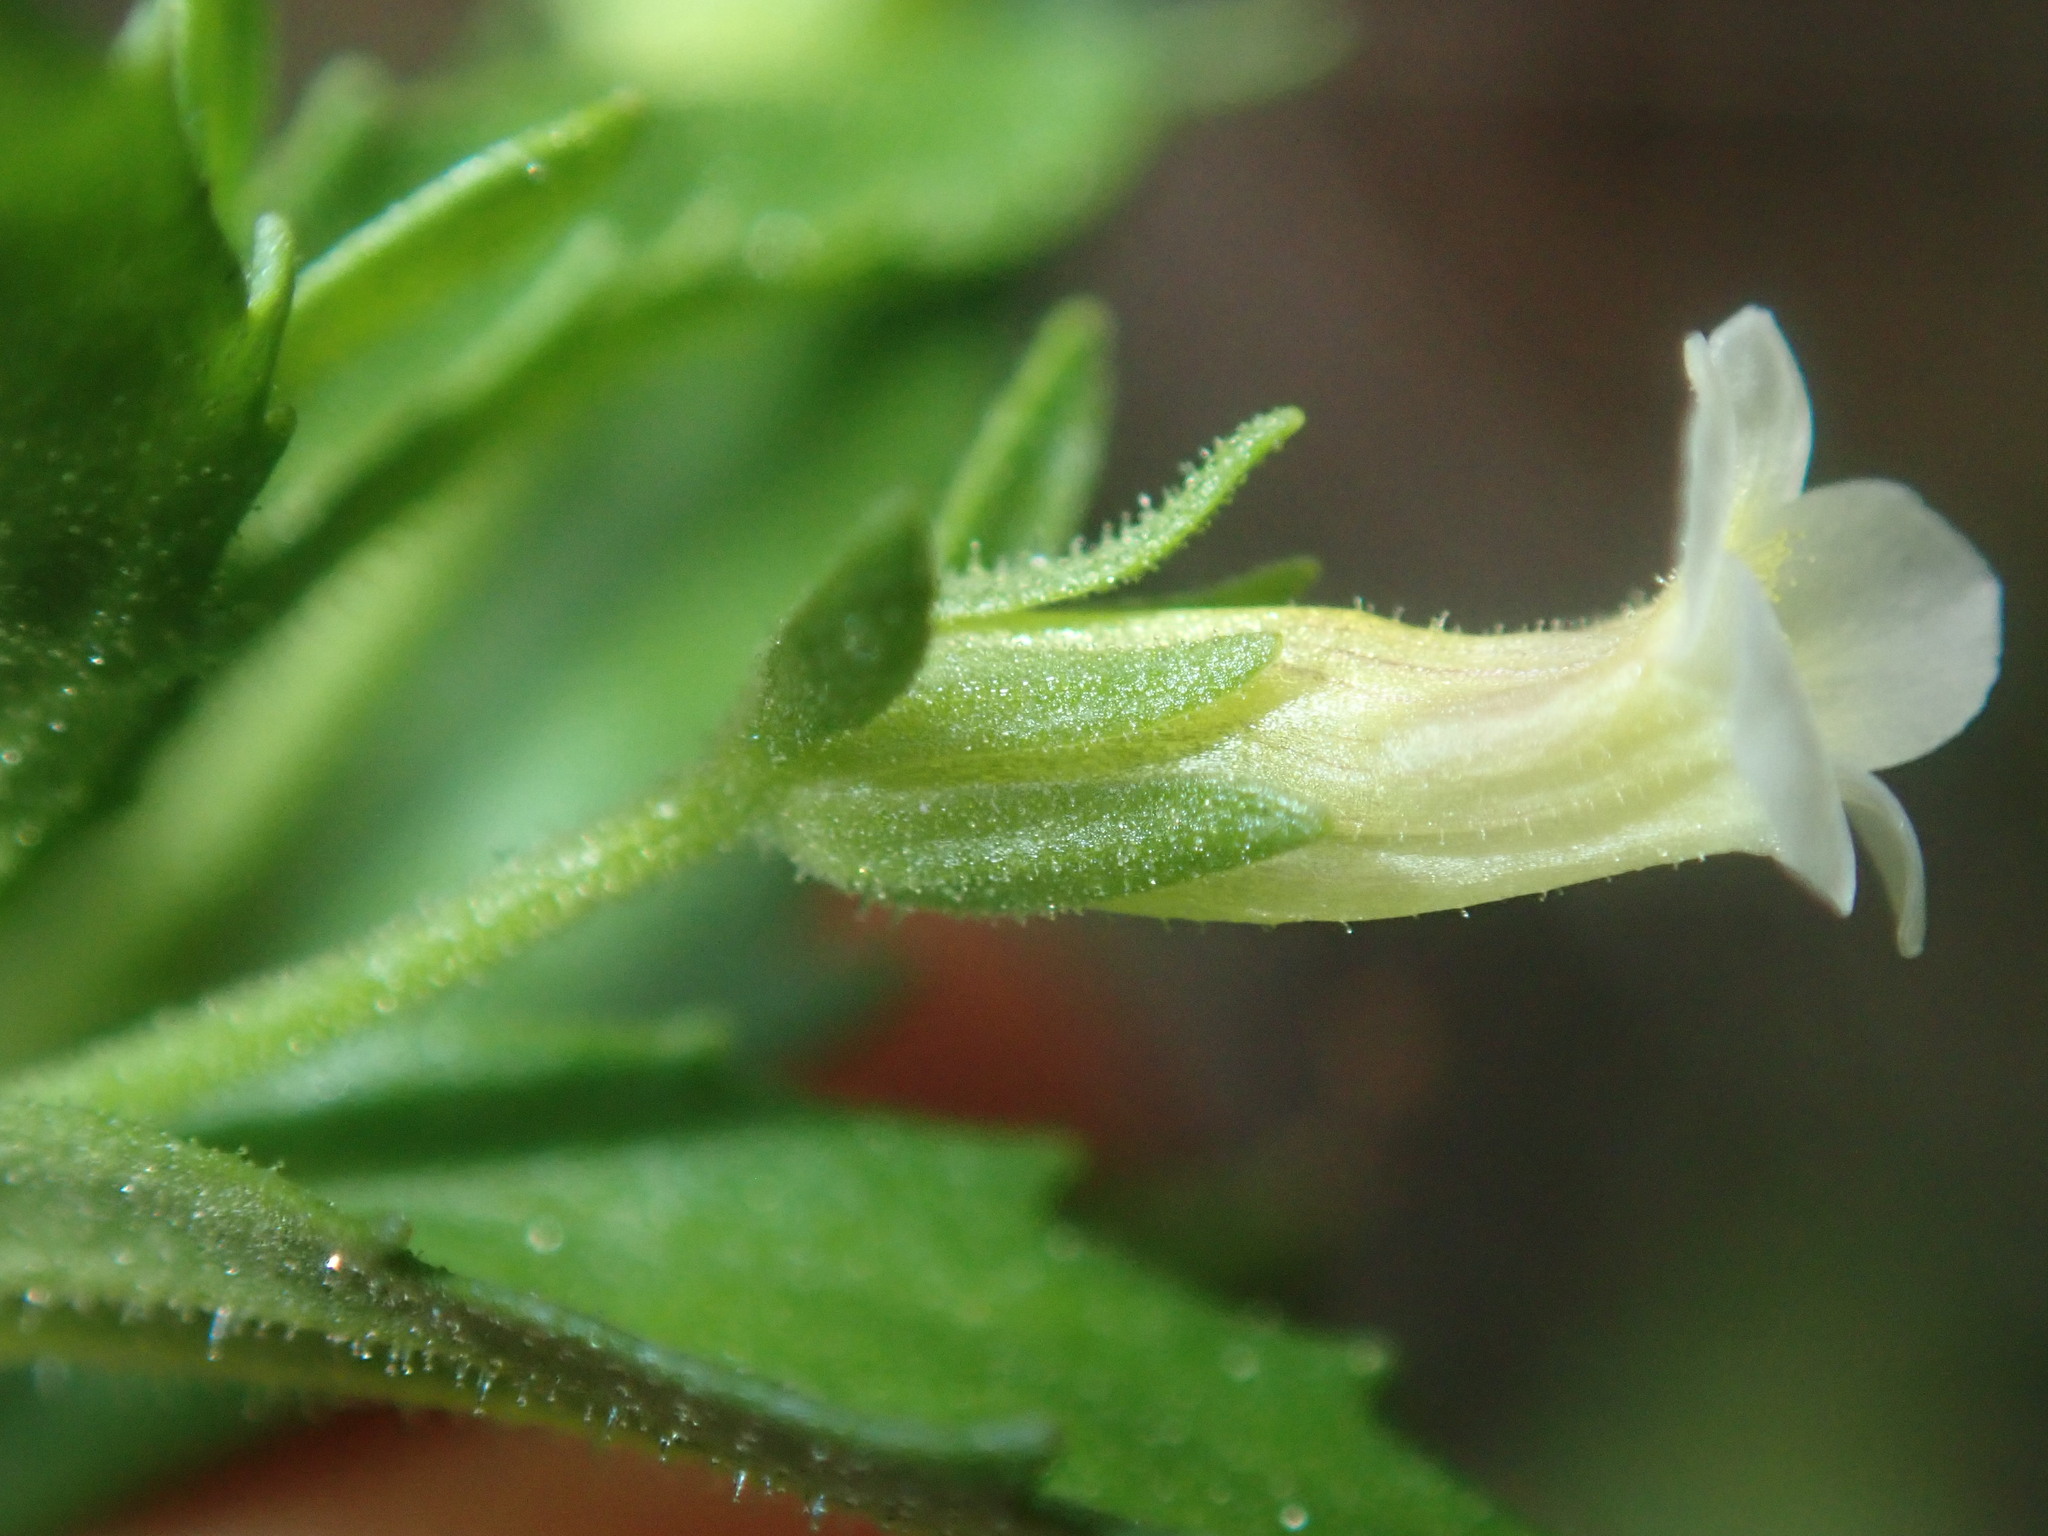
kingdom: Plantae
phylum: Tracheophyta
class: Magnoliopsida
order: Lamiales
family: Plantaginaceae
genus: Gratiola
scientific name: Gratiola pedunculata
